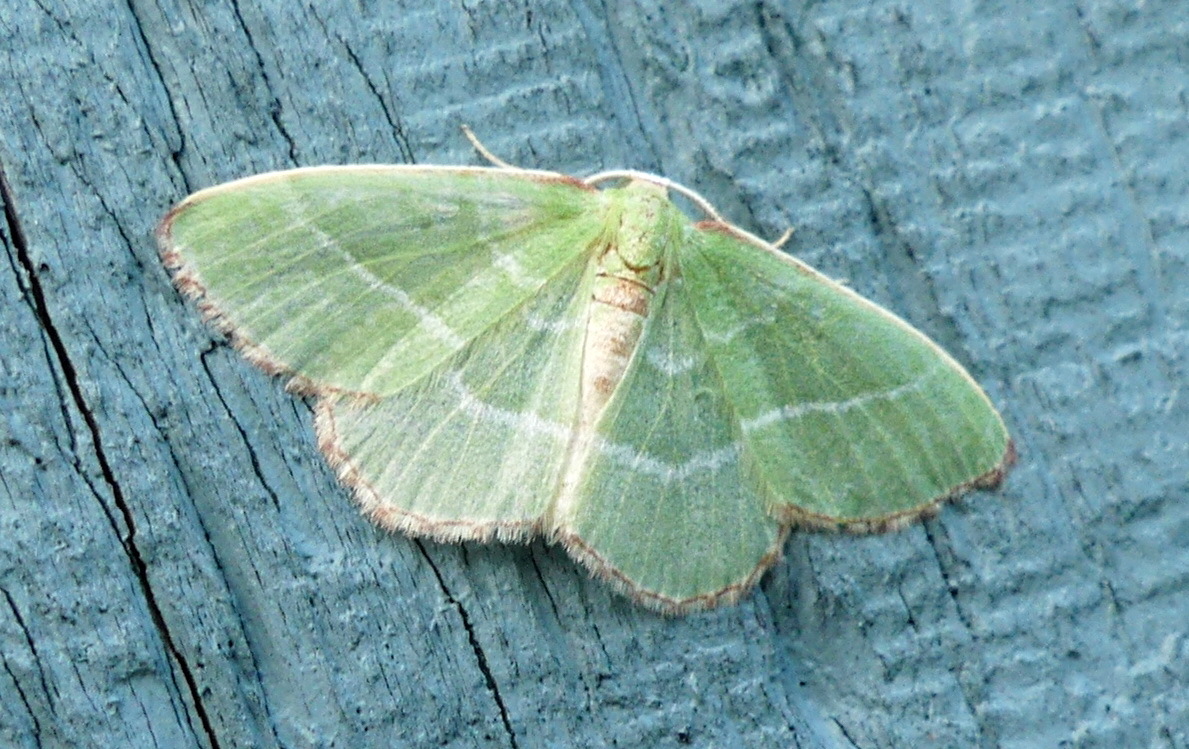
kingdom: Animalia
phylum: Arthropoda
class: Insecta
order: Lepidoptera
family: Geometridae
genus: Nemoria
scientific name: Nemoria bistriaria
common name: Red-fringed emerald
